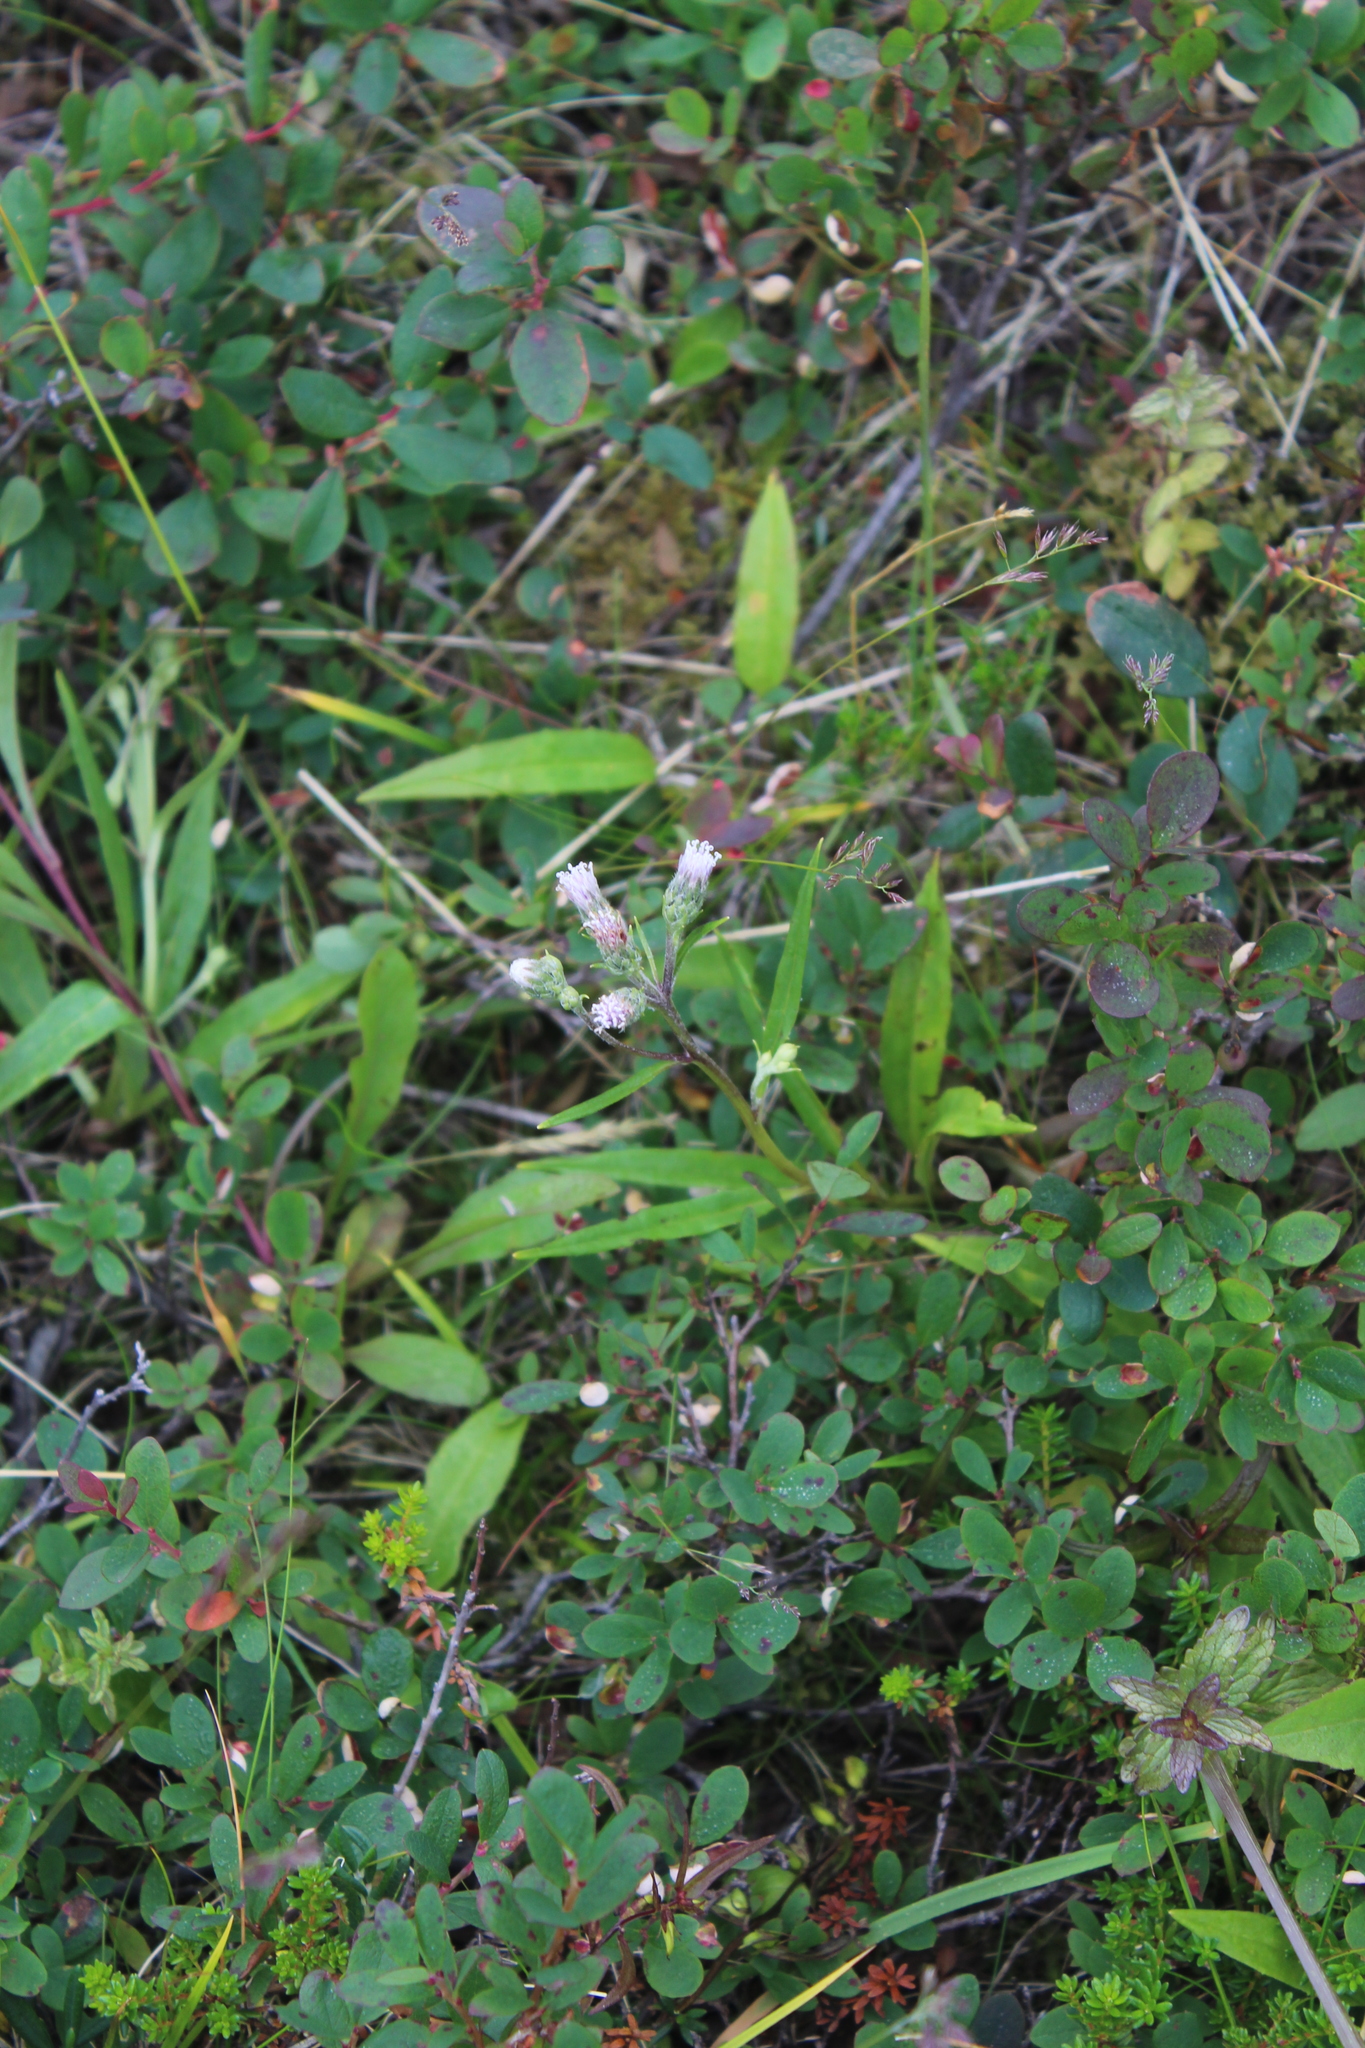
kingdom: Plantae
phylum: Tracheophyta
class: Magnoliopsida
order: Asterales
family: Asteraceae
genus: Saussurea
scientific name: Saussurea alpina
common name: Alpine saw-wort
